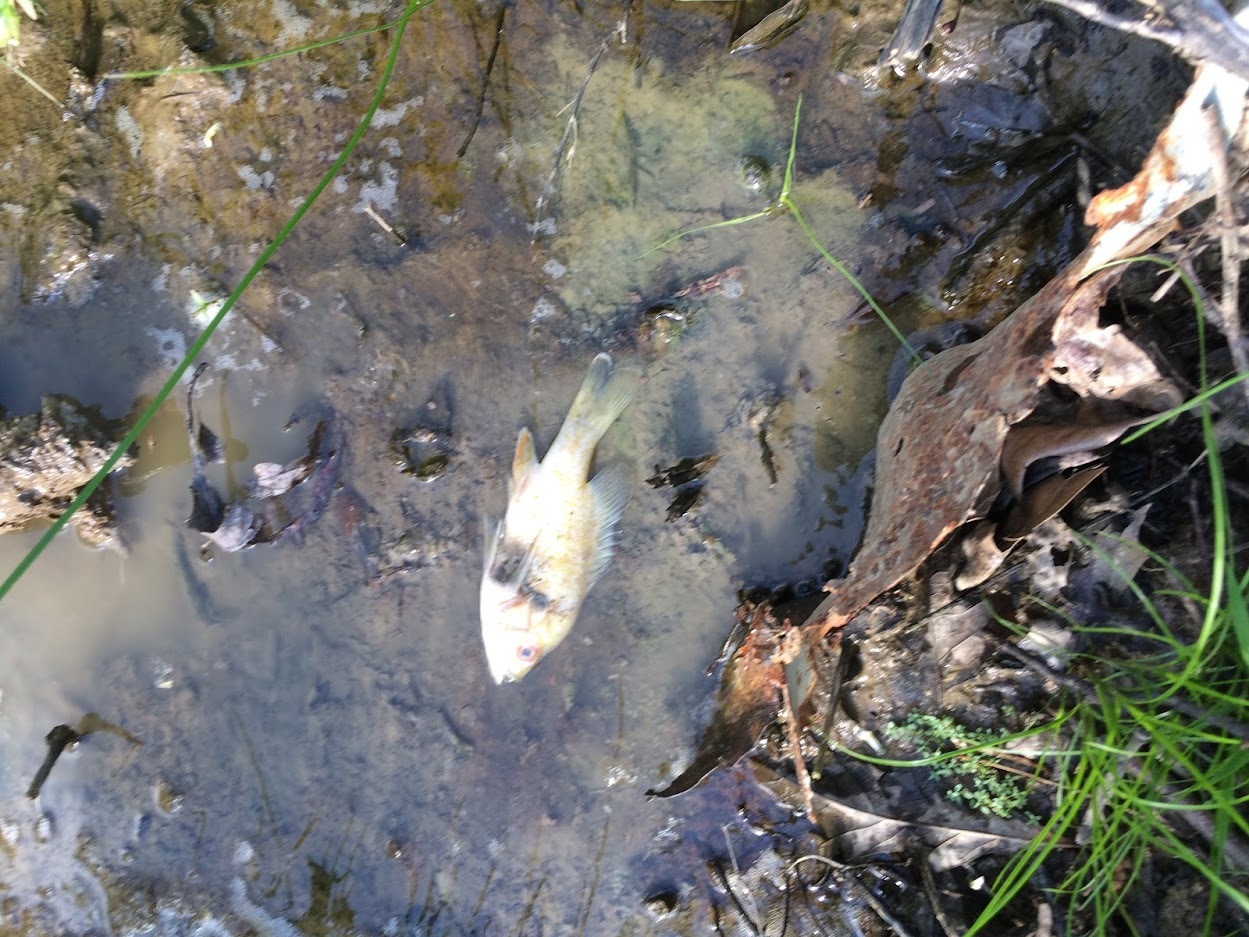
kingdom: Animalia
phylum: Chordata
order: Perciformes
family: Centrarchidae
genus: Lepomis
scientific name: Lepomis megalotis
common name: Longear sunfish
